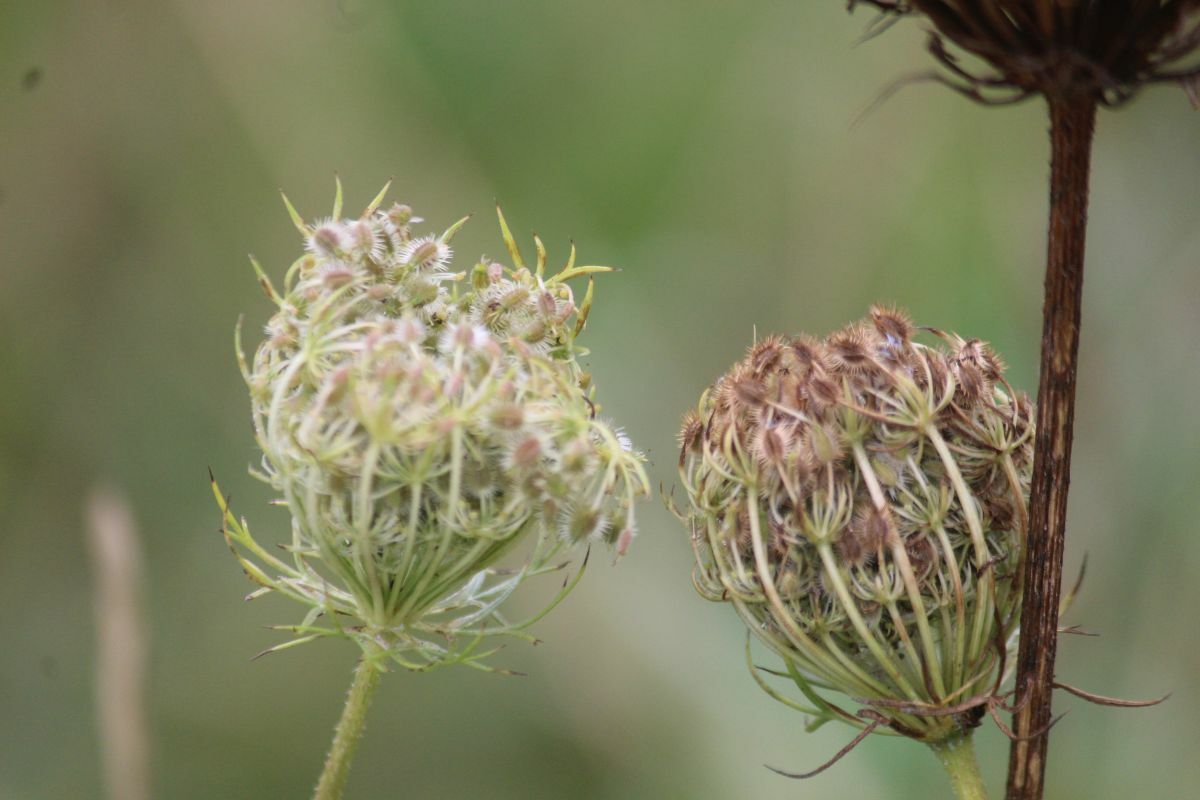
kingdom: Plantae
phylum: Tracheophyta
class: Magnoliopsida
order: Apiales
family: Apiaceae
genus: Daucus
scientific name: Daucus carota
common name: Wild carrot
